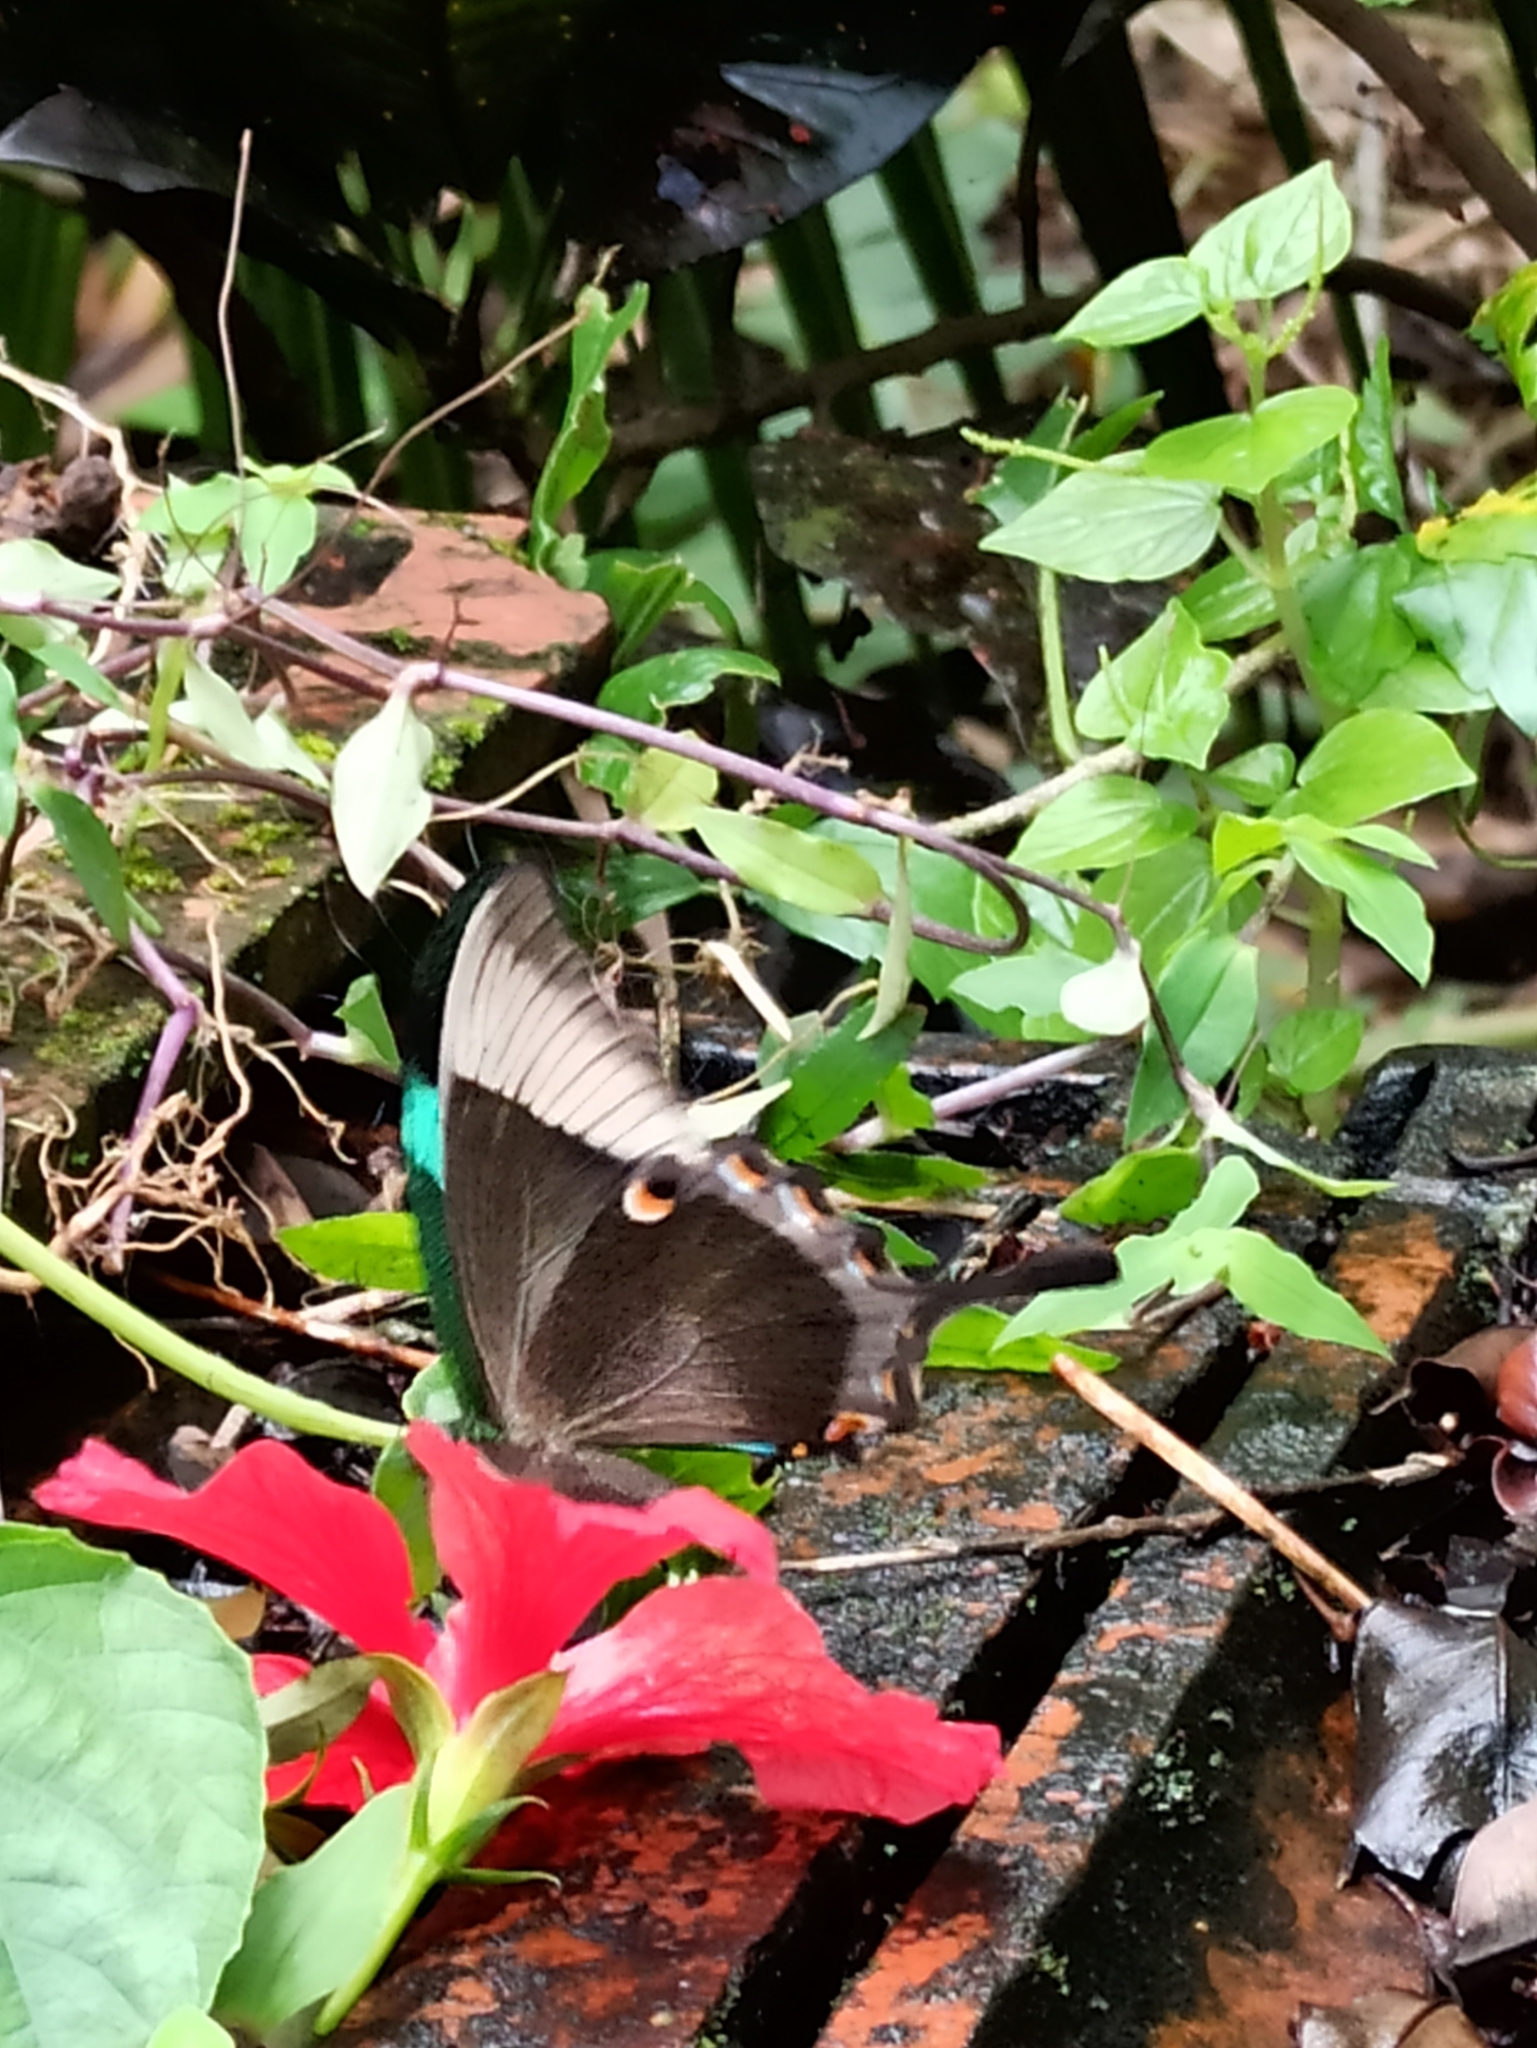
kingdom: Animalia
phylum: Arthropoda
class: Insecta
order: Lepidoptera
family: Papilionidae
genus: Papilio
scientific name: Papilio buddha
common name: Malabar banded peacock
